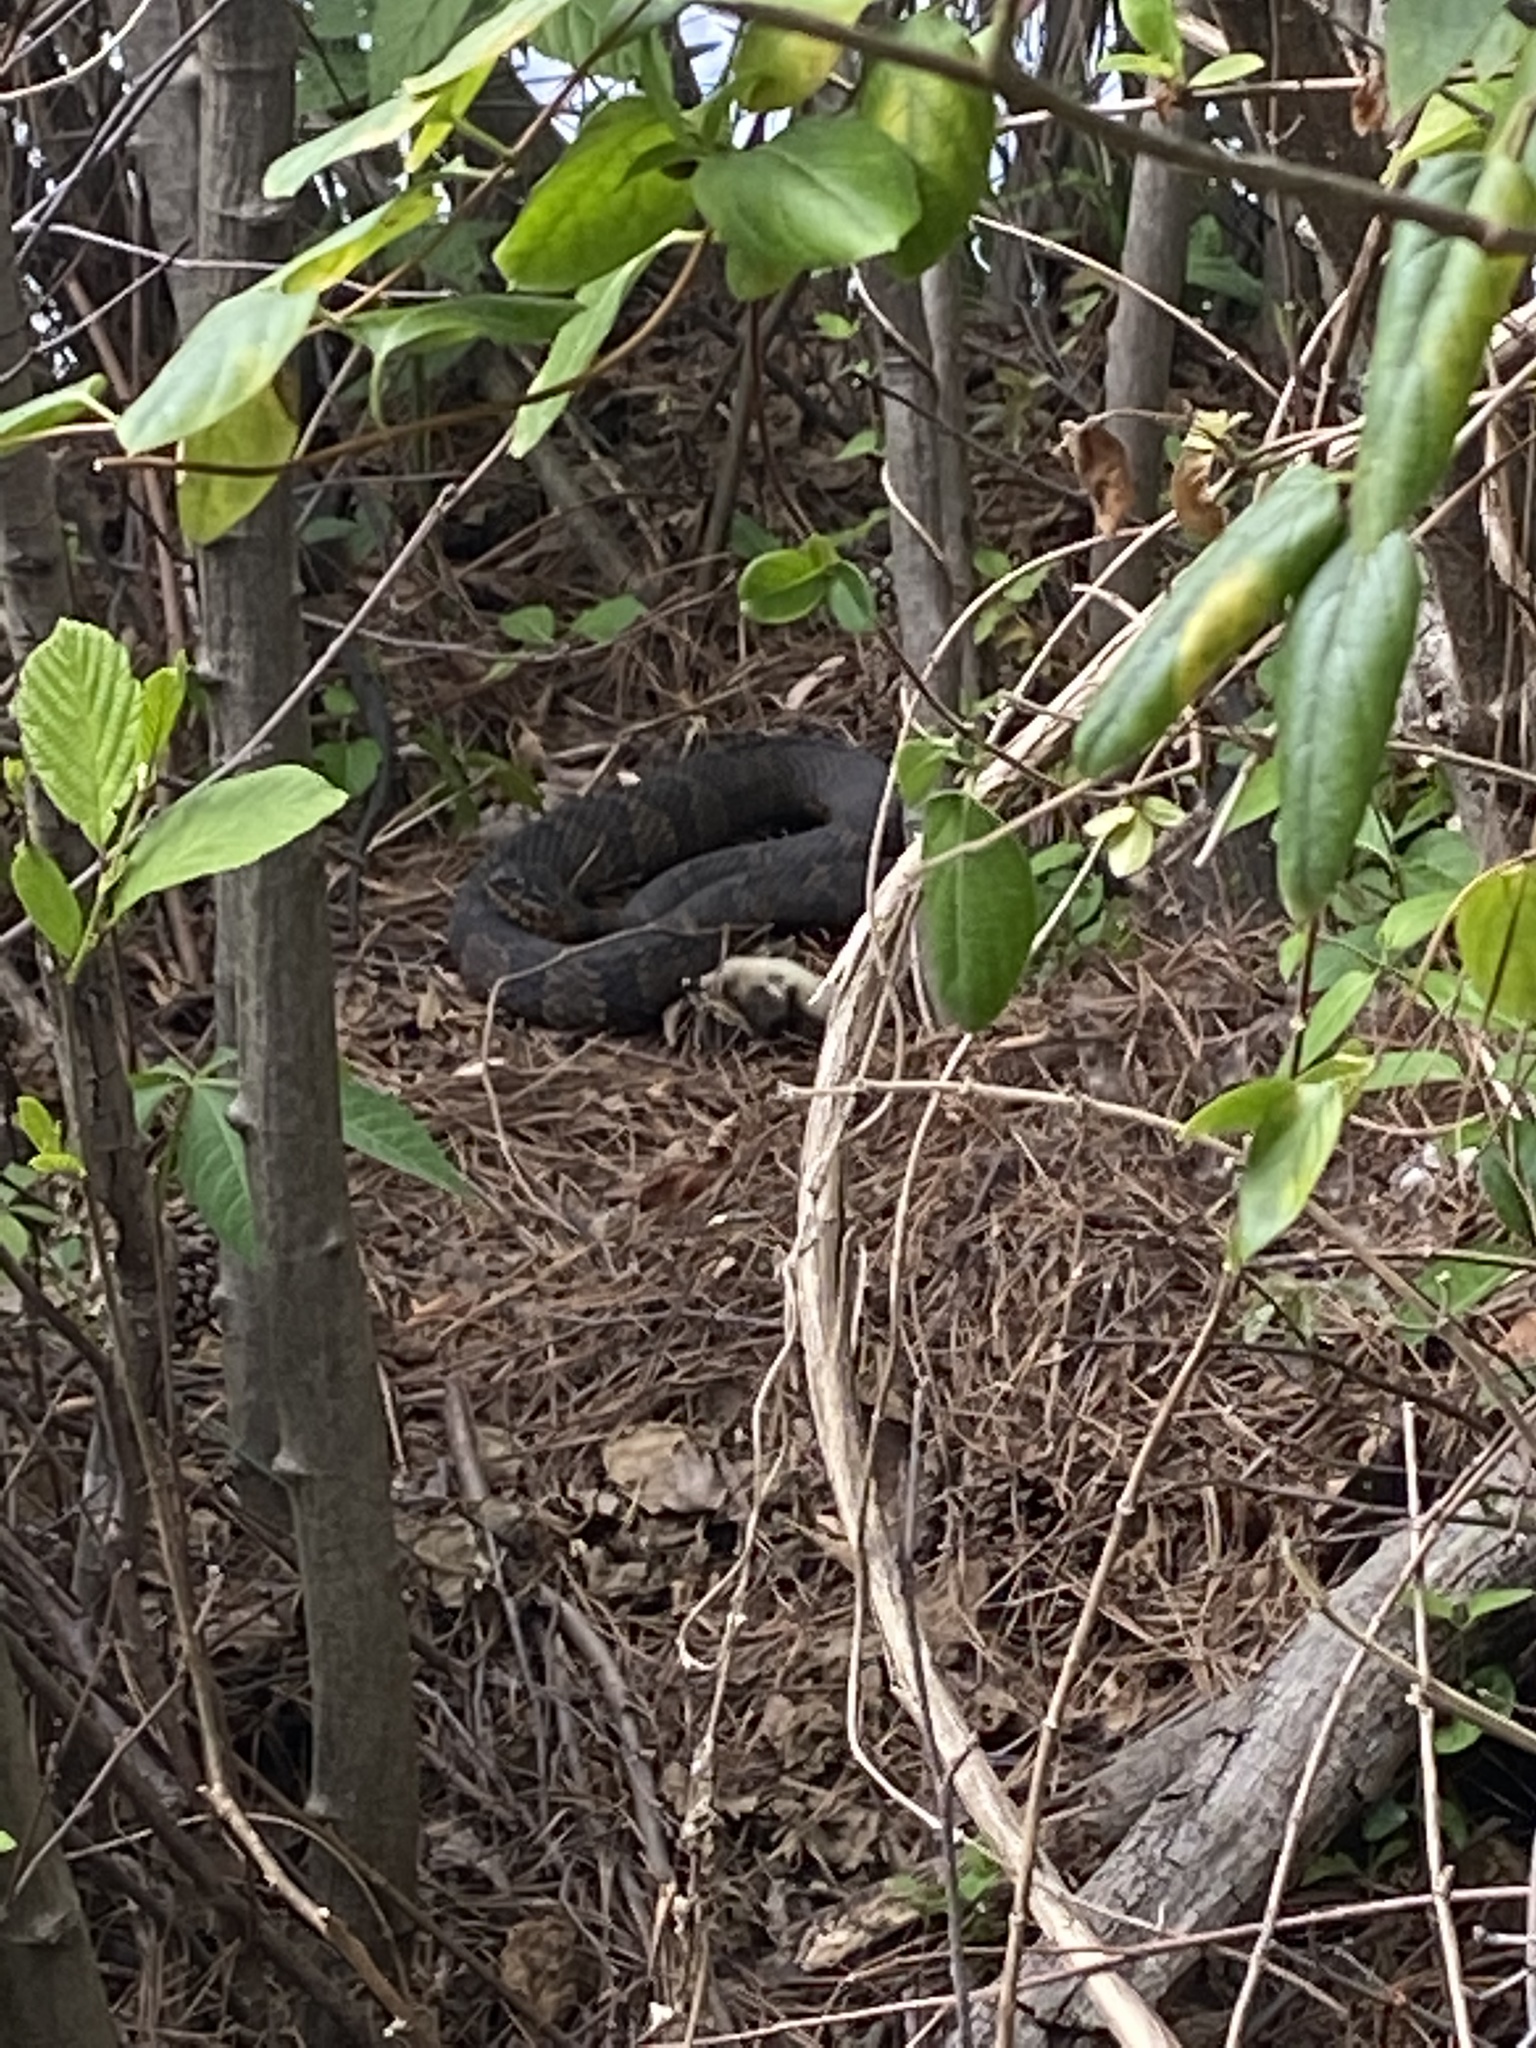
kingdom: Animalia
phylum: Chordata
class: Squamata
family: Colubridae
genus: Nerodia
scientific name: Nerodia sipedon
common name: Northern water snake
